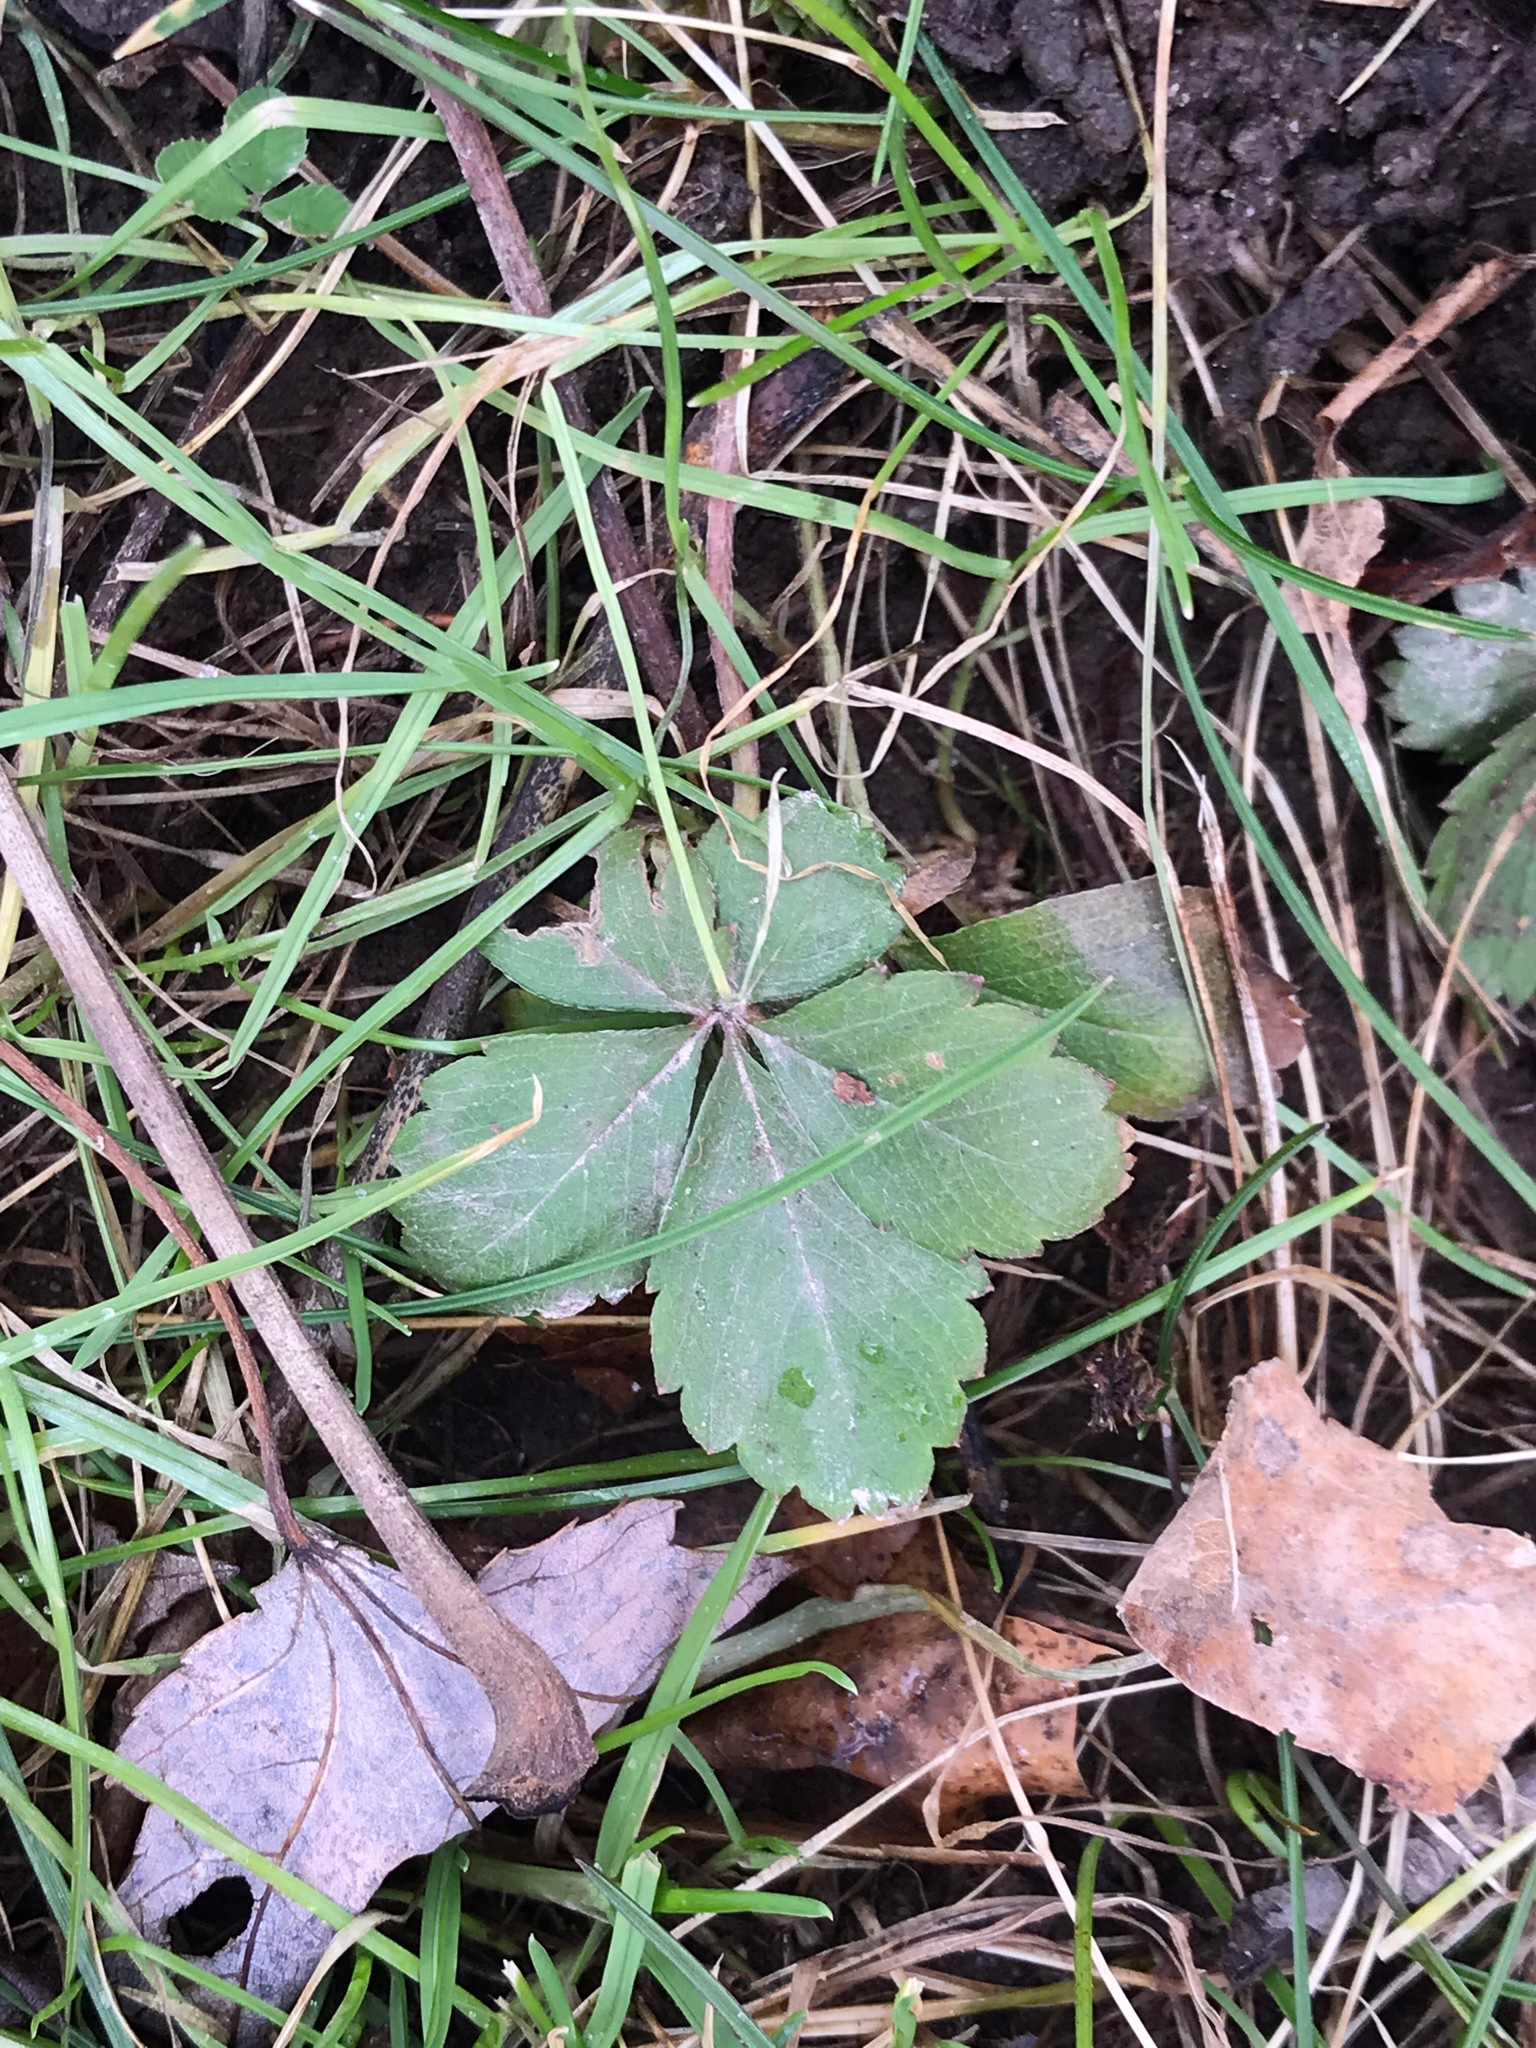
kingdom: Plantae
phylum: Tracheophyta
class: Magnoliopsida
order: Rosales
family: Rosaceae
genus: Potentilla
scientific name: Potentilla canadensis
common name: Canada cinquefoil
